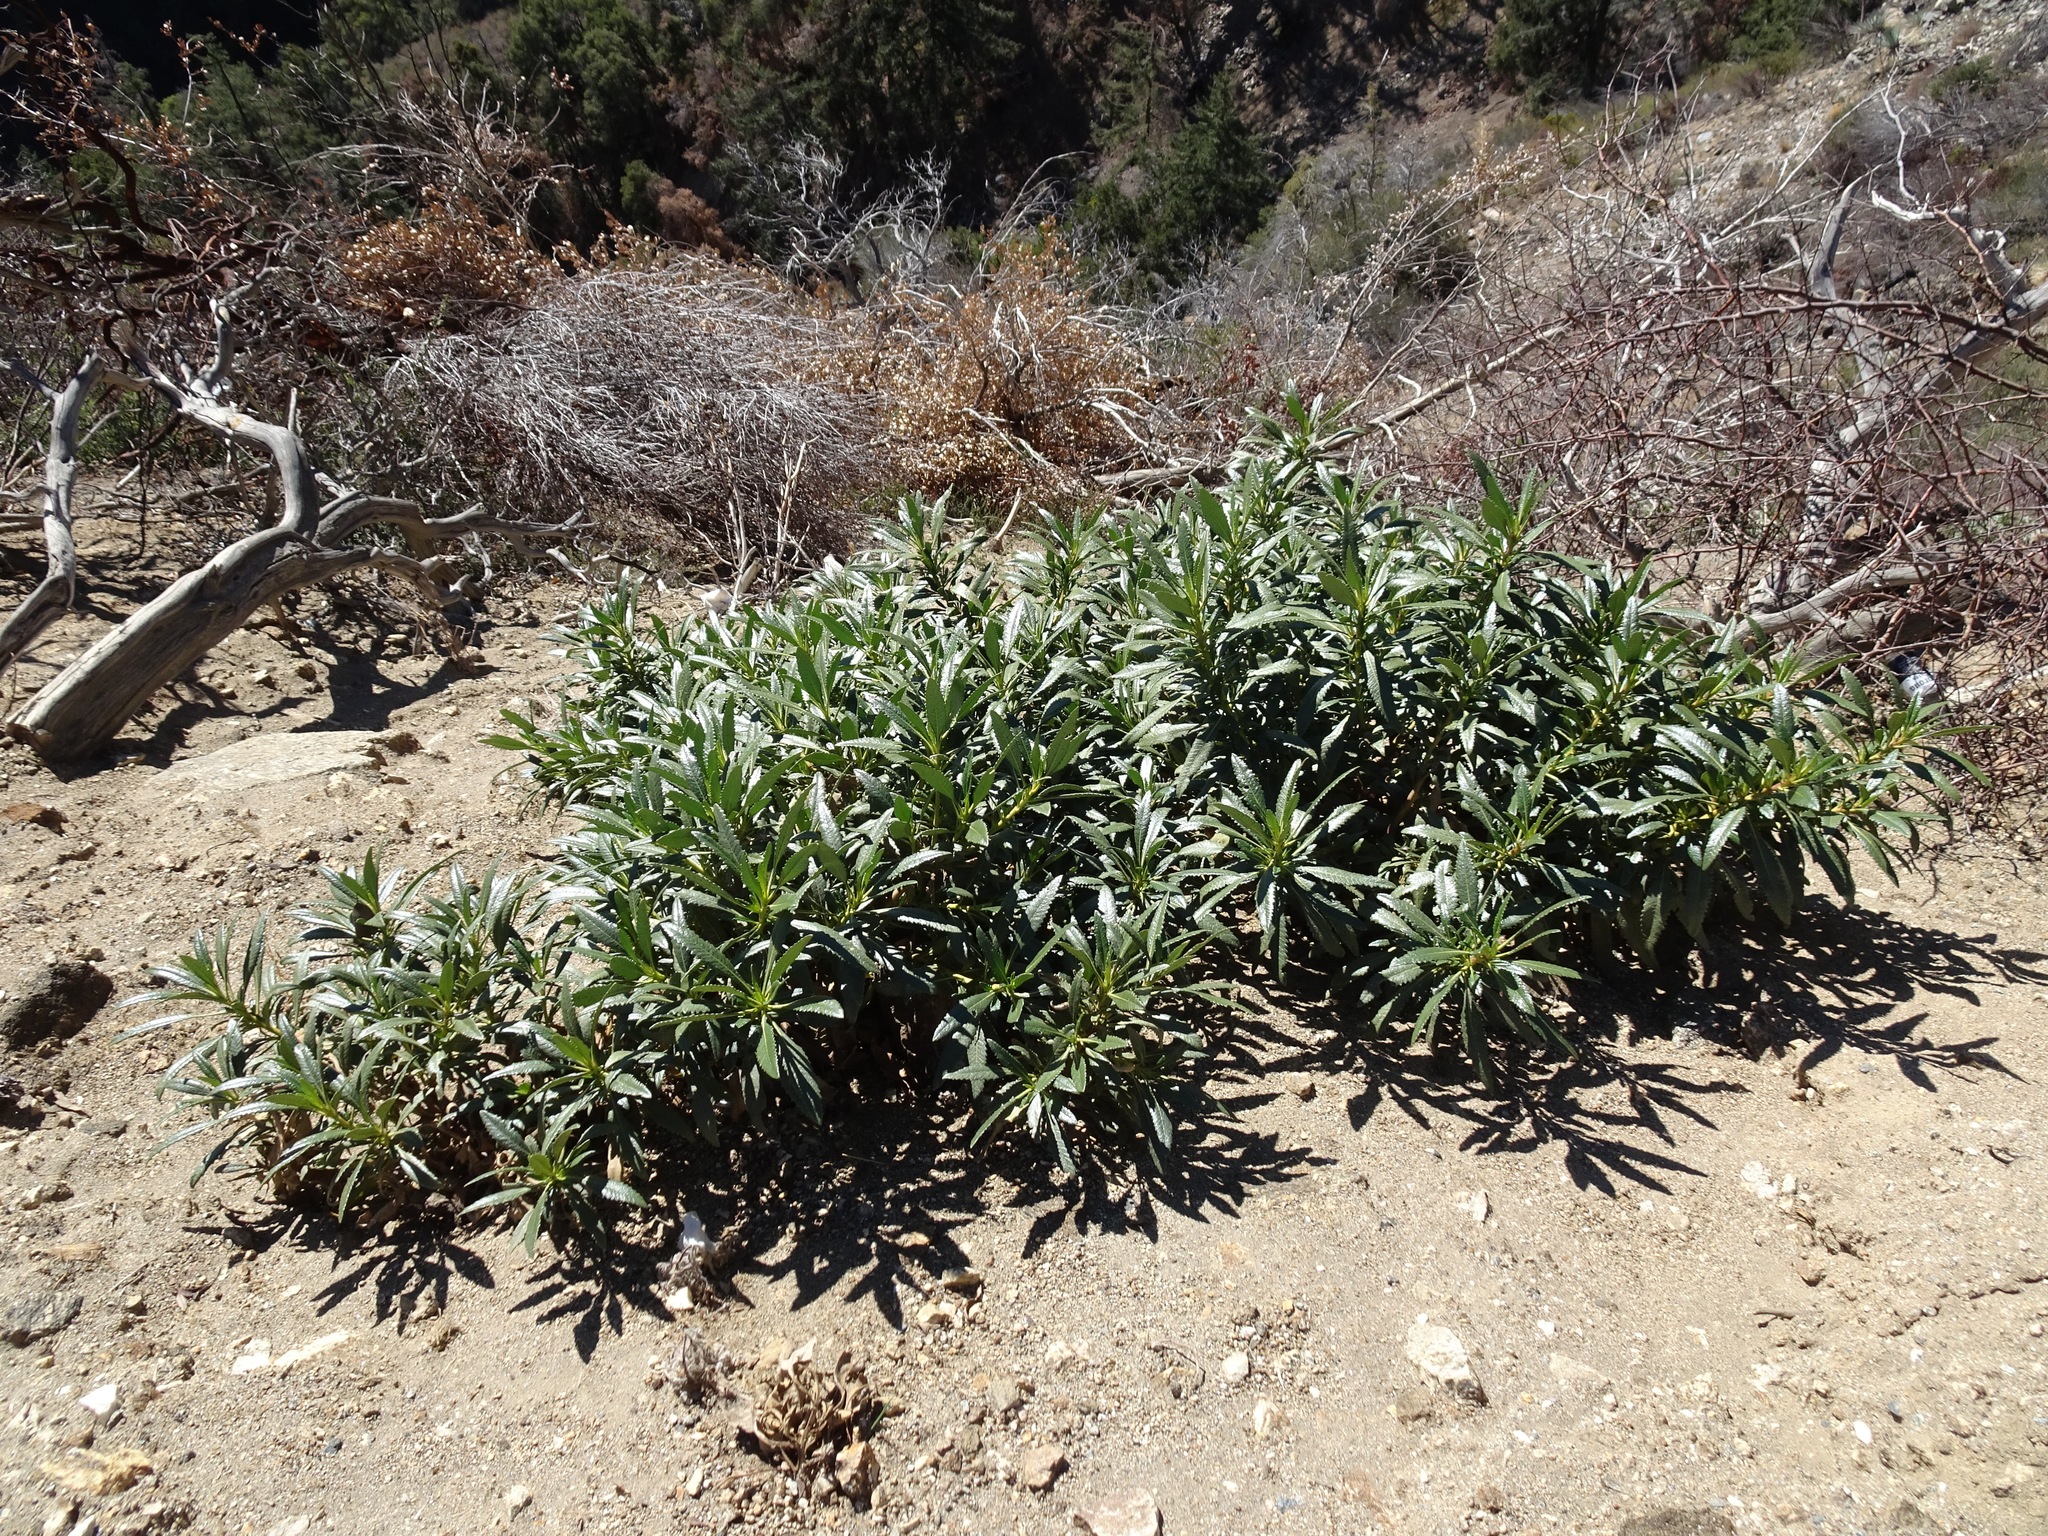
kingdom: Plantae
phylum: Tracheophyta
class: Magnoliopsida
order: Boraginales
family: Namaceae
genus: Eriodictyon
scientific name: Eriodictyon trichocalyx
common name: Hairy yerba-santa
